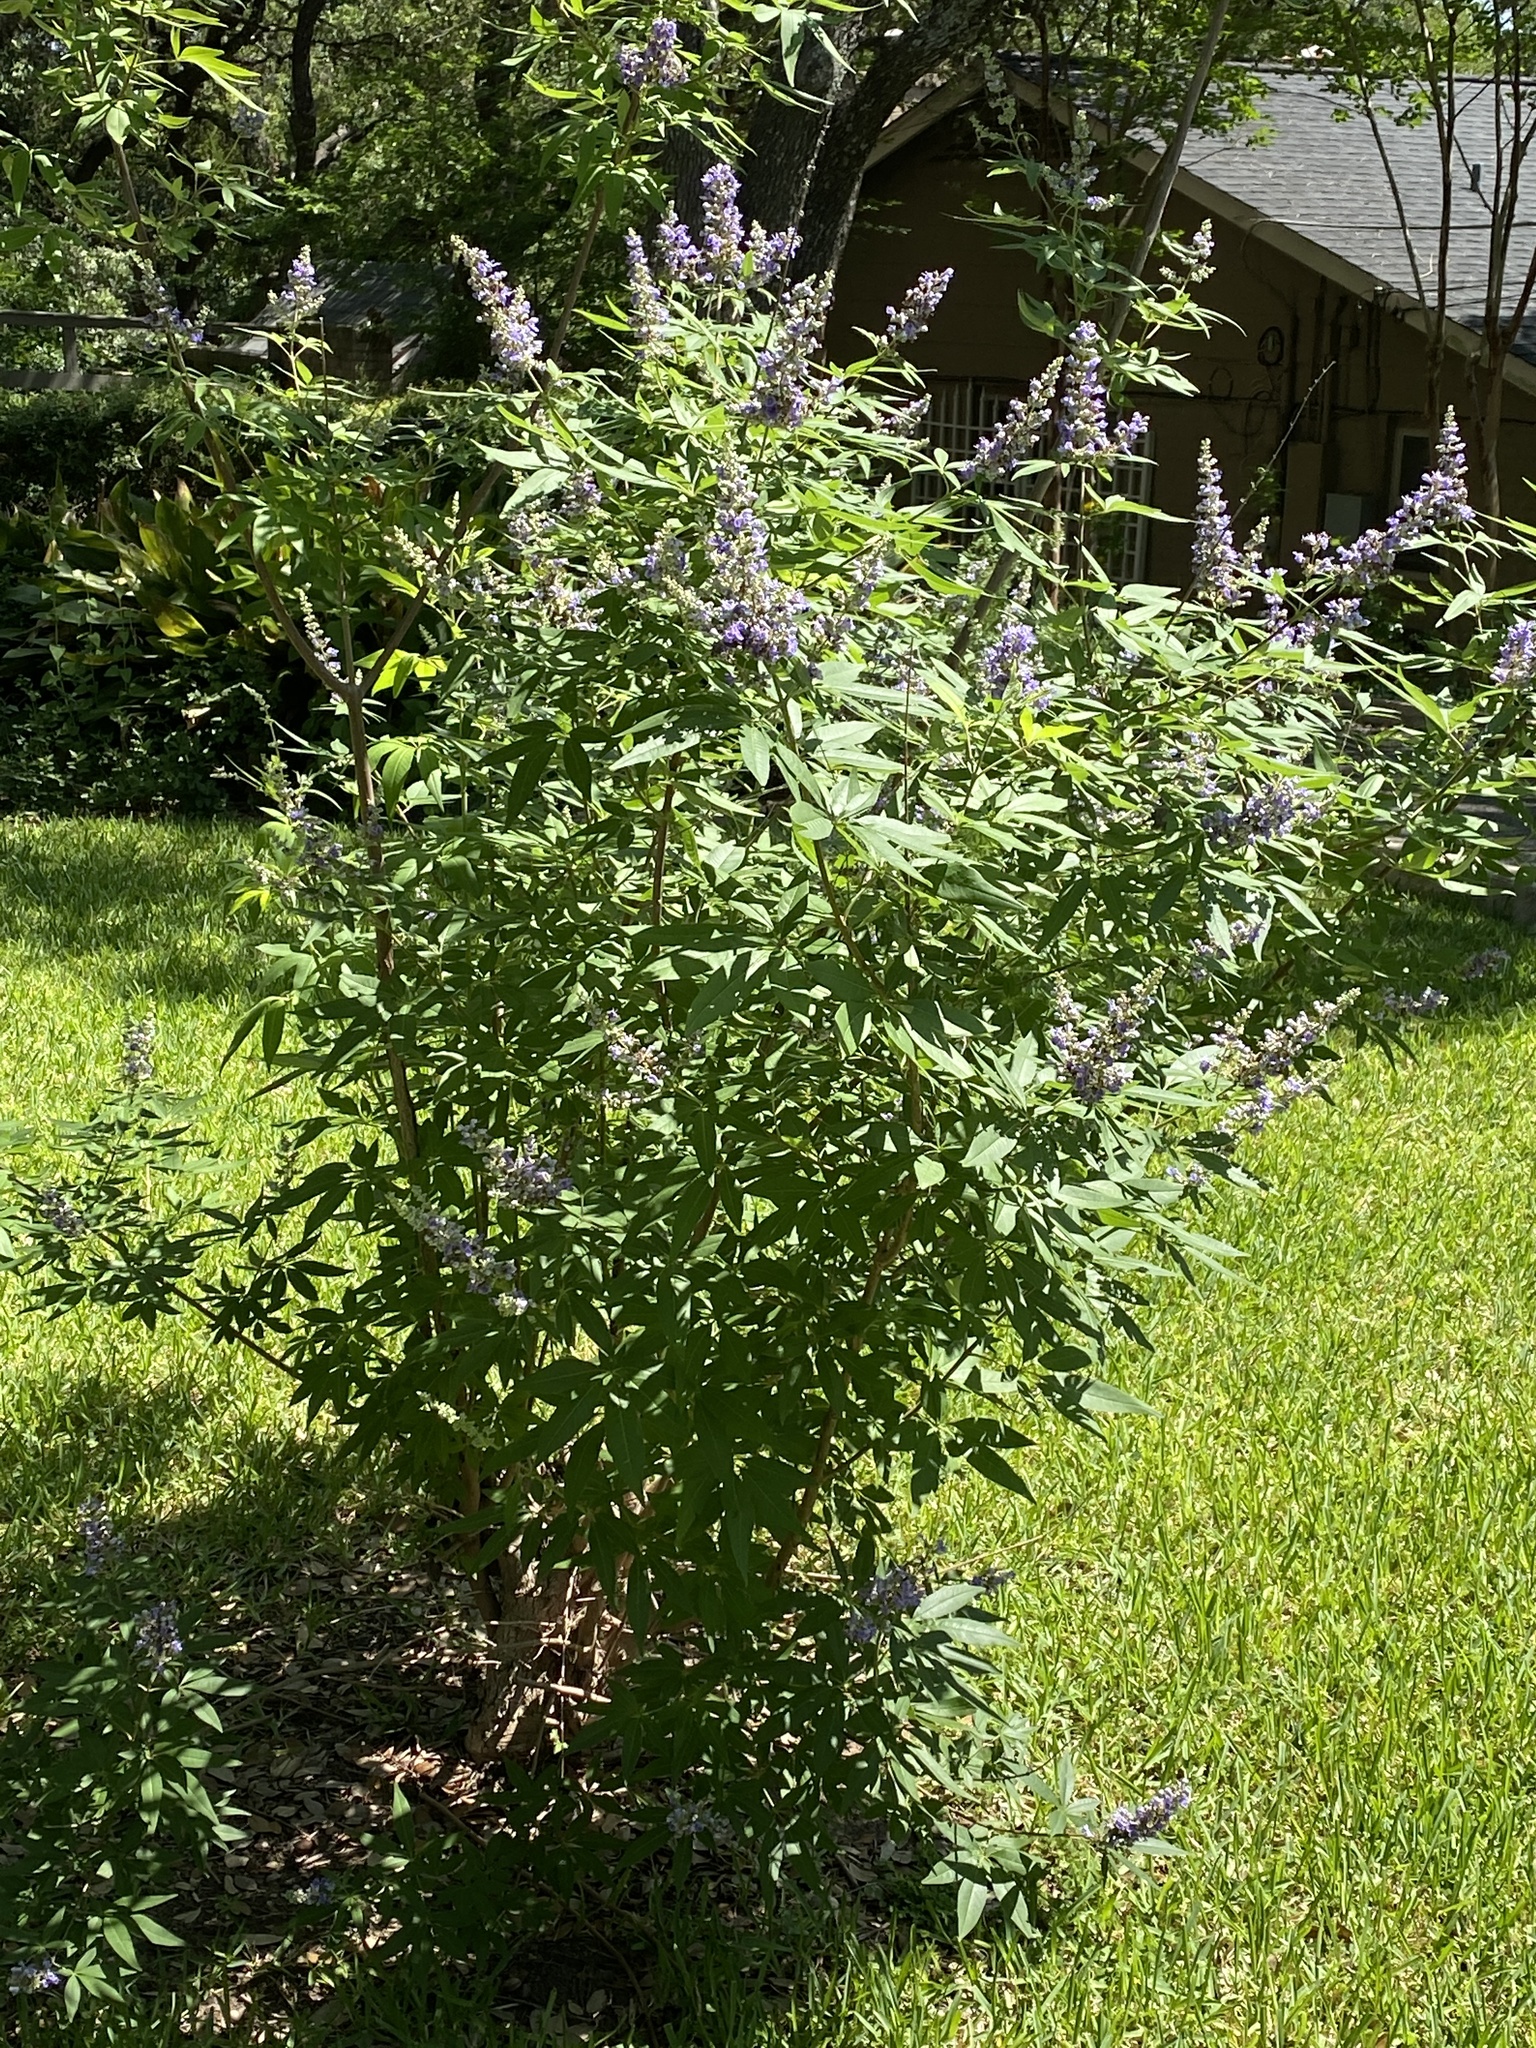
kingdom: Plantae
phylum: Tracheophyta
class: Magnoliopsida
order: Lamiales
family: Lamiaceae
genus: Vitex
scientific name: Vitex agnus-castus
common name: Chasteberry
